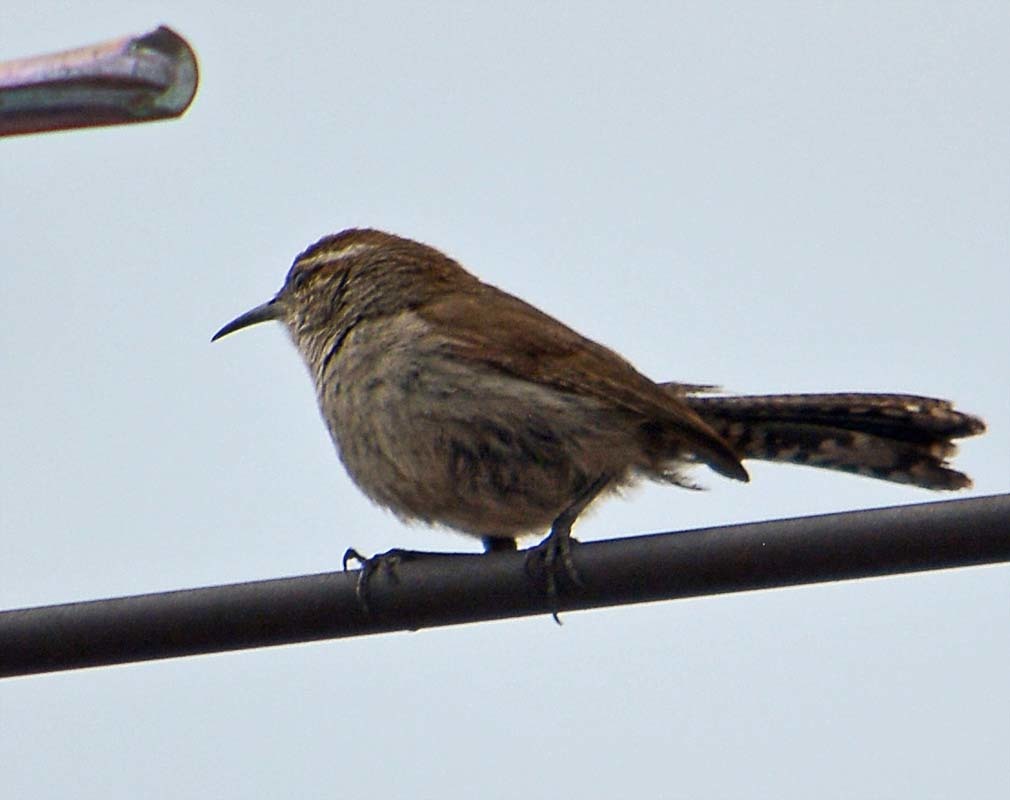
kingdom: Animalia
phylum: Chordata
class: Aves
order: Passeriformes
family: Troglodytidae
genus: Thryomanes
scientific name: Thryomanes bewickii
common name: Bewick's wren
